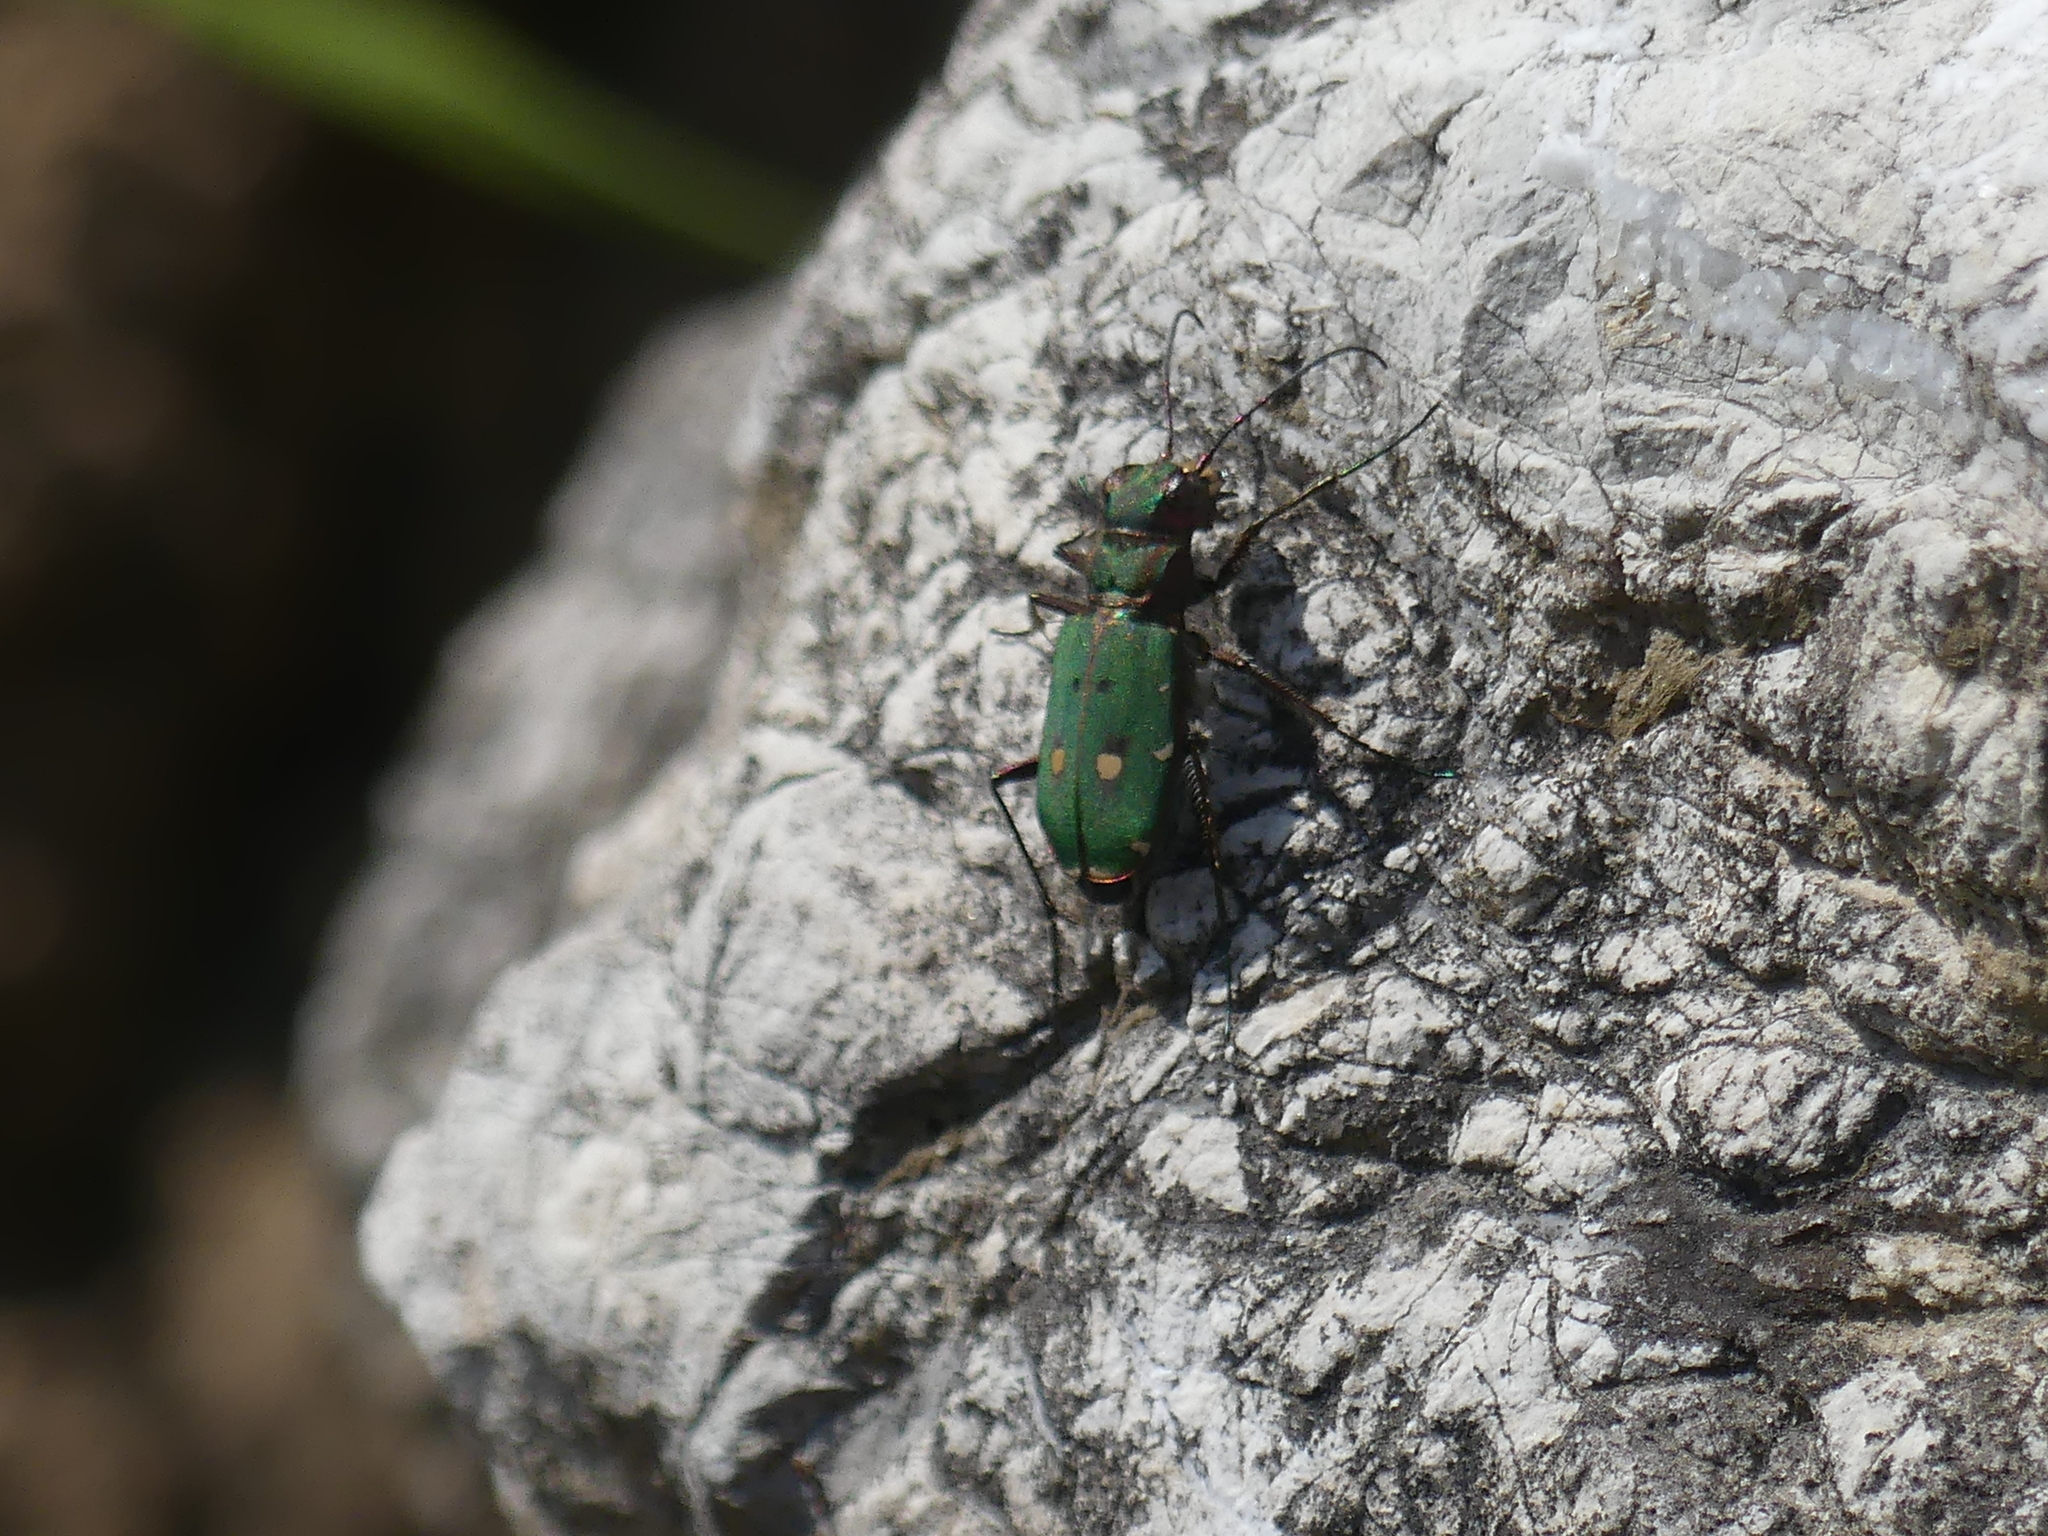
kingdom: Animalia
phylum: Arthropoda
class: Insecta
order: Coleoptera
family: Carabidae
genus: Cicindela
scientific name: Cicindela campestris
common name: Common tiger beetle
